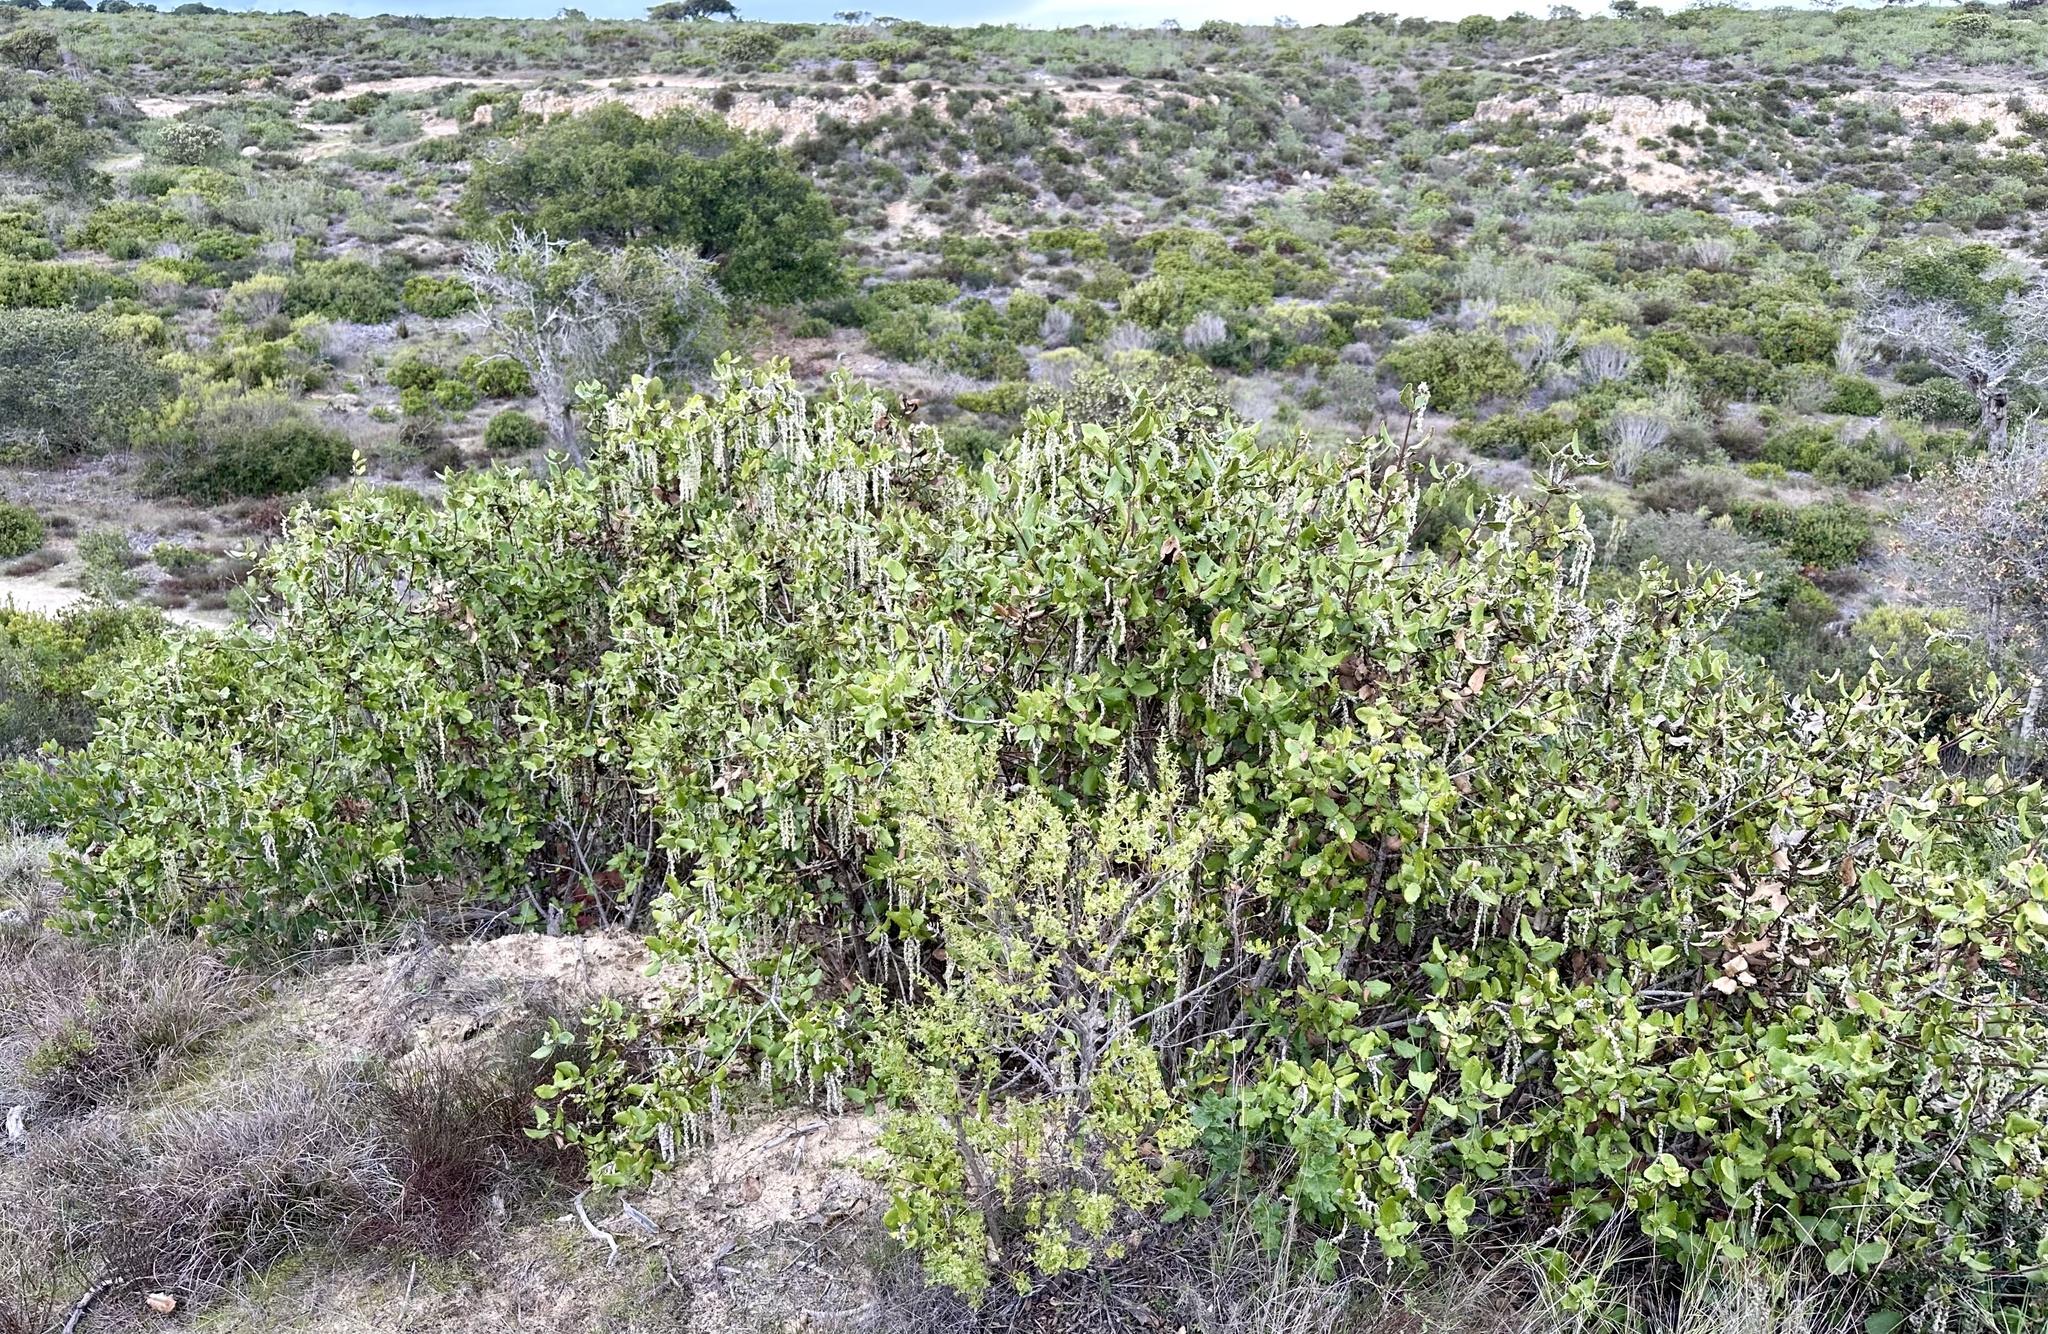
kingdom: Plantae
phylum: Tracheophyta
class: Magnoliopsida
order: Garryales
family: Garryaceae
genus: Garrya
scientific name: Garrya elliptica
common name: Silk-tassel
